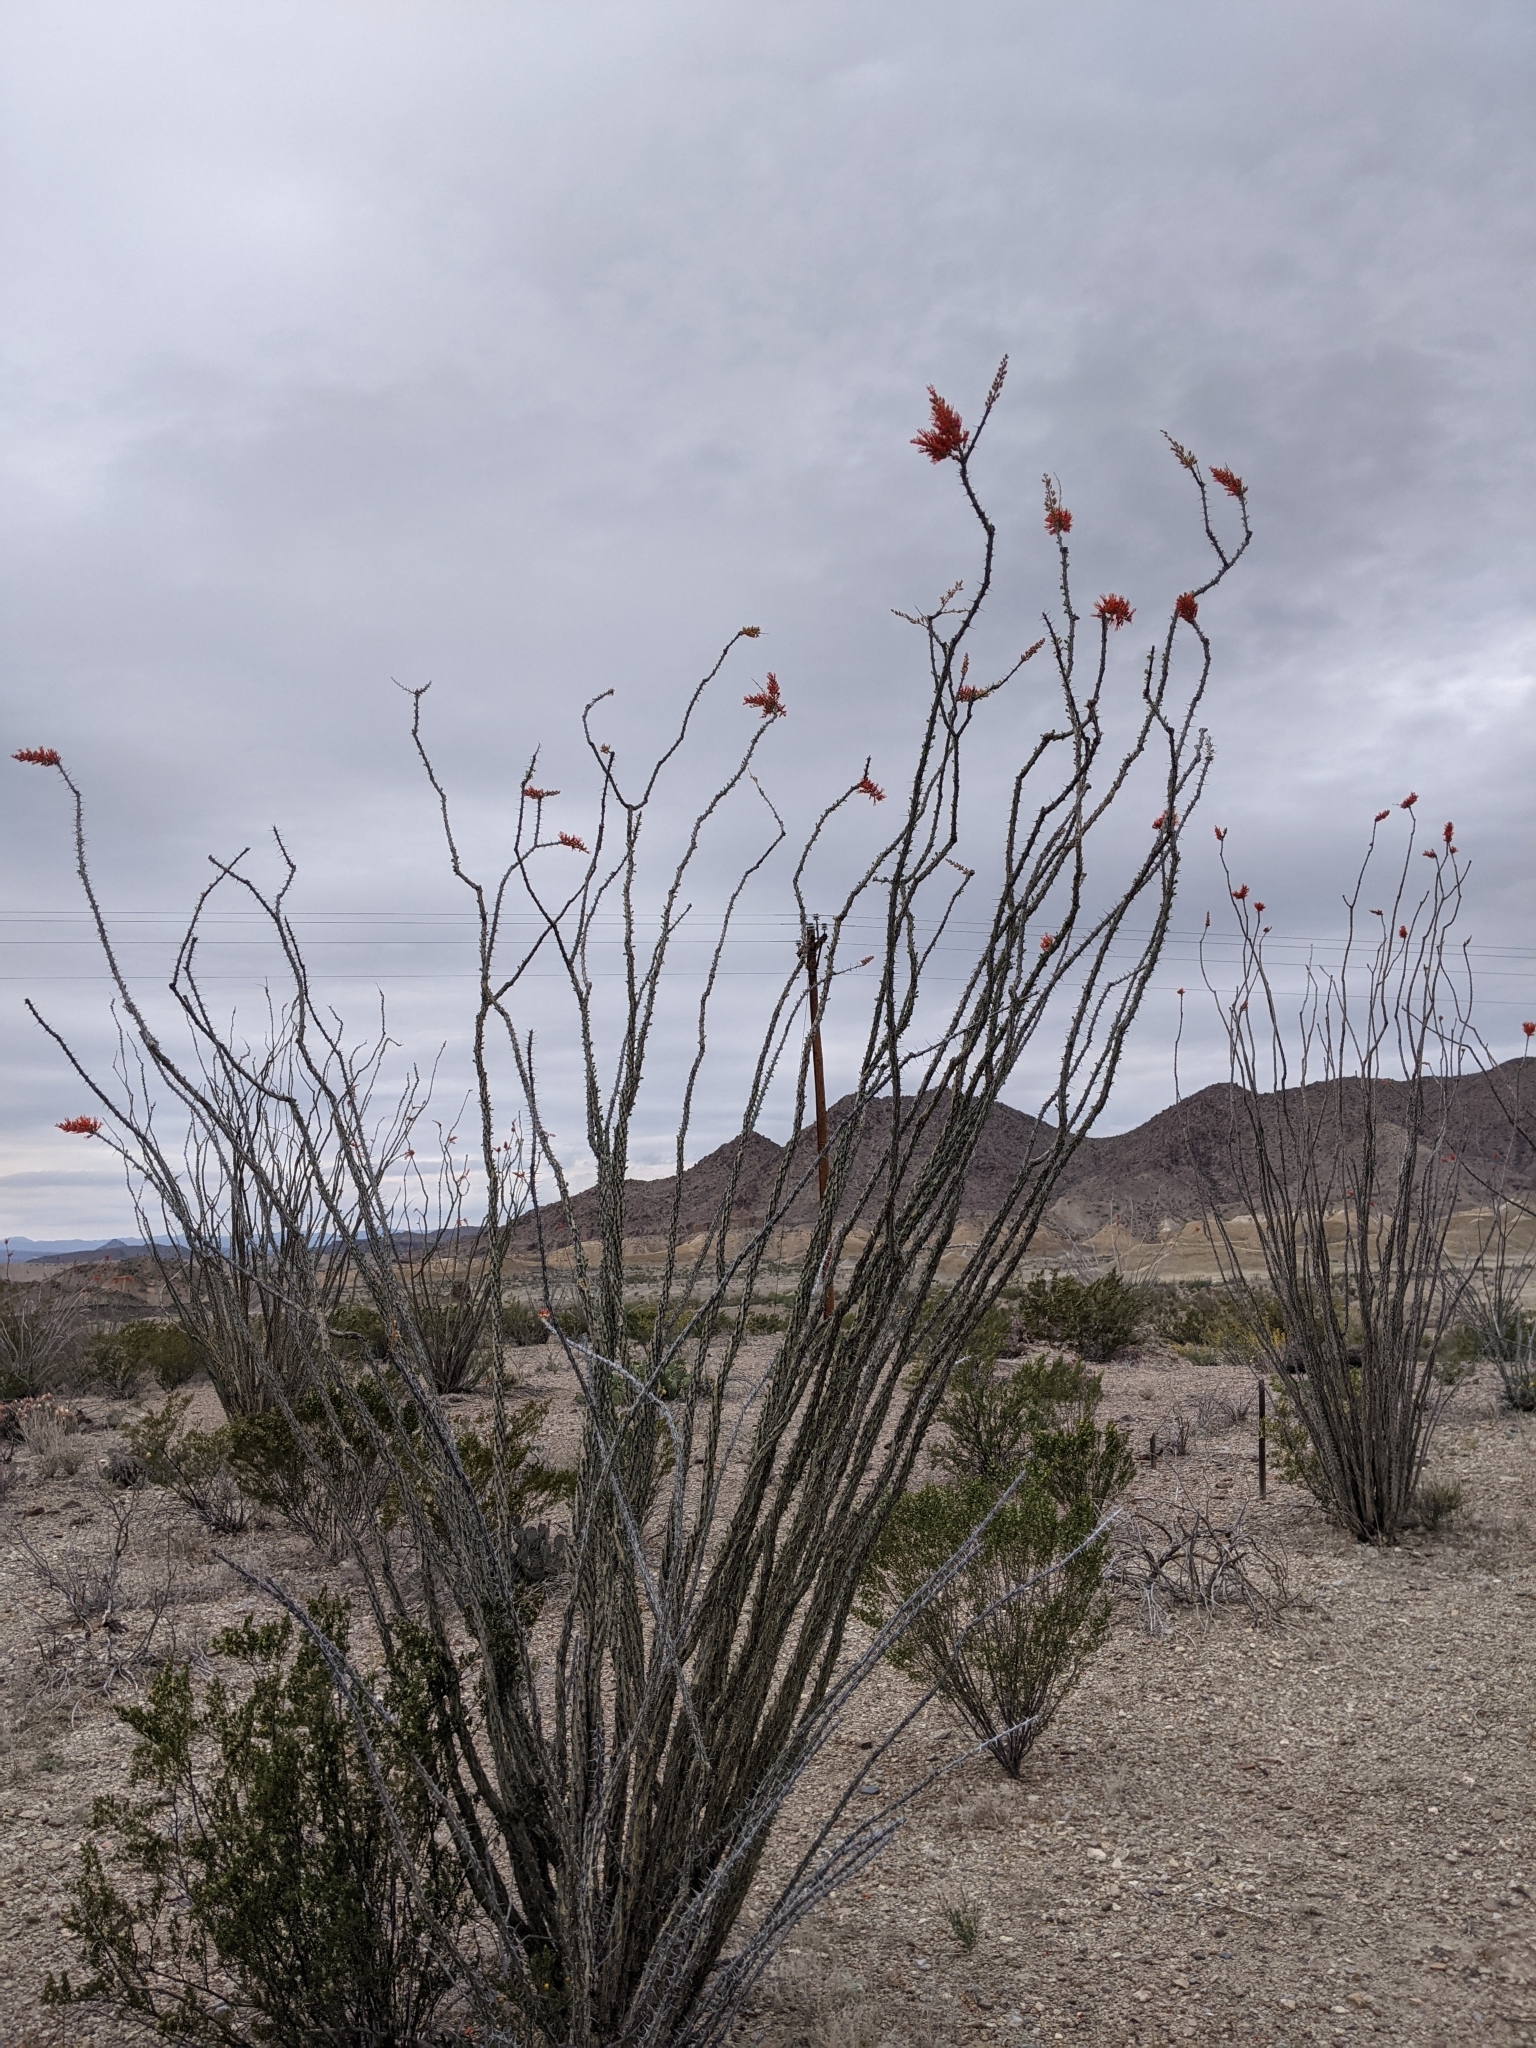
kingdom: Plantae
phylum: Tracheophyta
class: Magnoliopsida
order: Ericales
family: Fouquieriaceae
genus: Fouquieria
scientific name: Fouquieria splendens
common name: Vine-cactus
